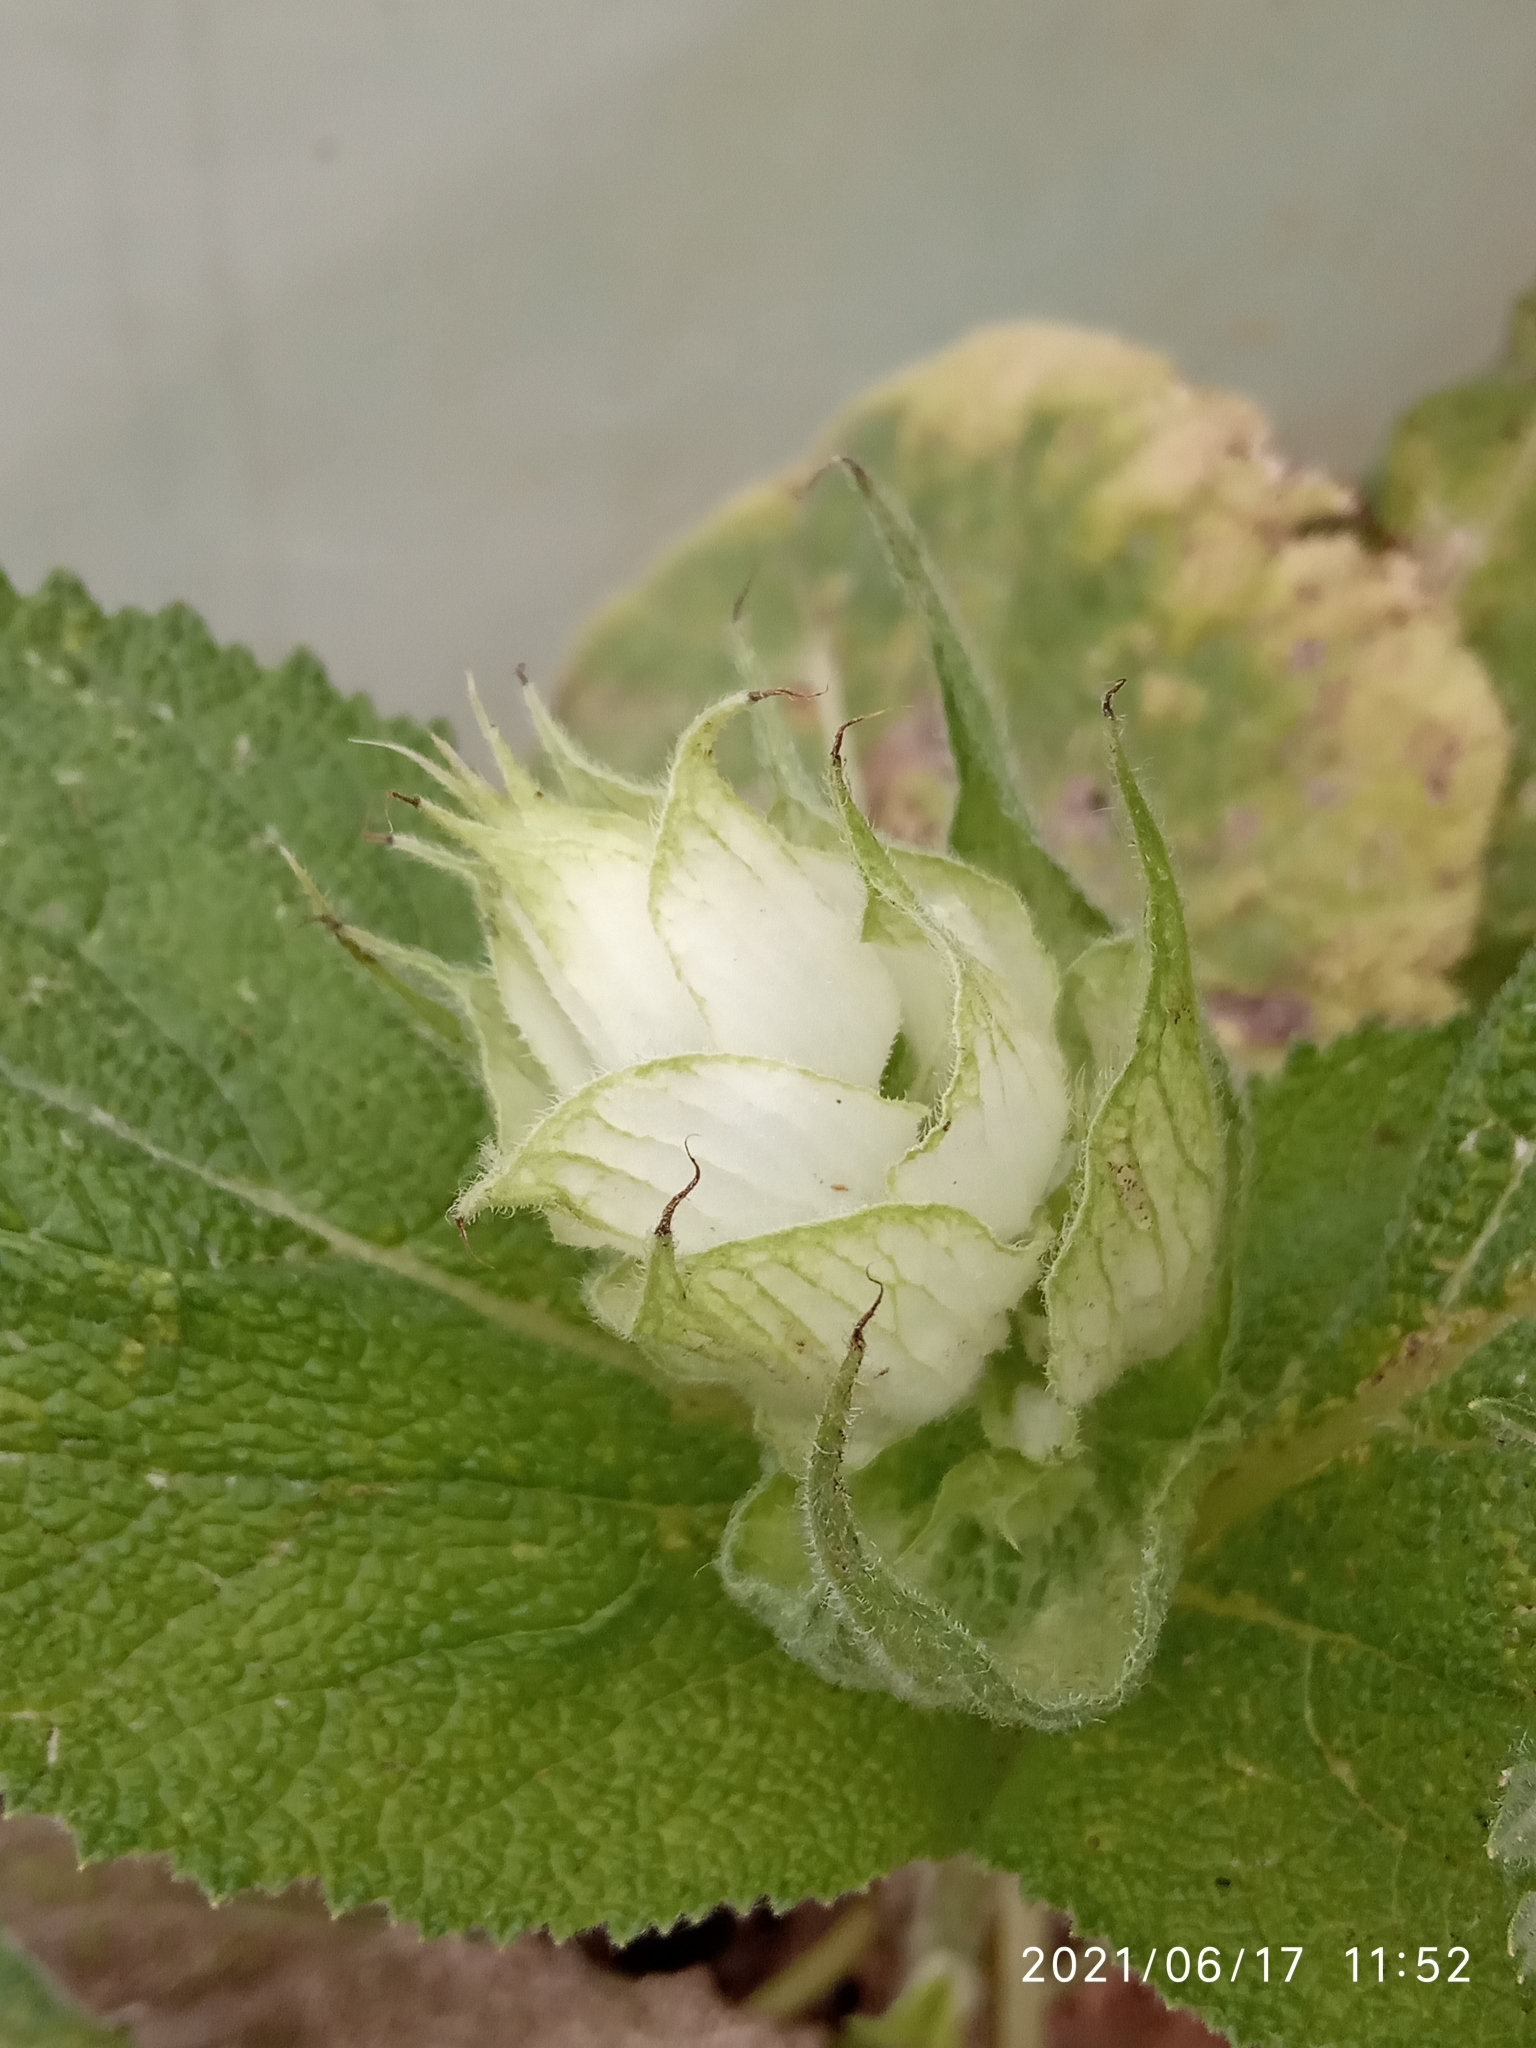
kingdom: Plantae
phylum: Tracheophyta
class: Magnoliopsida
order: Lamiales
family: Lamiaceae
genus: Salvia
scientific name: Salvia sclarea
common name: Clary
